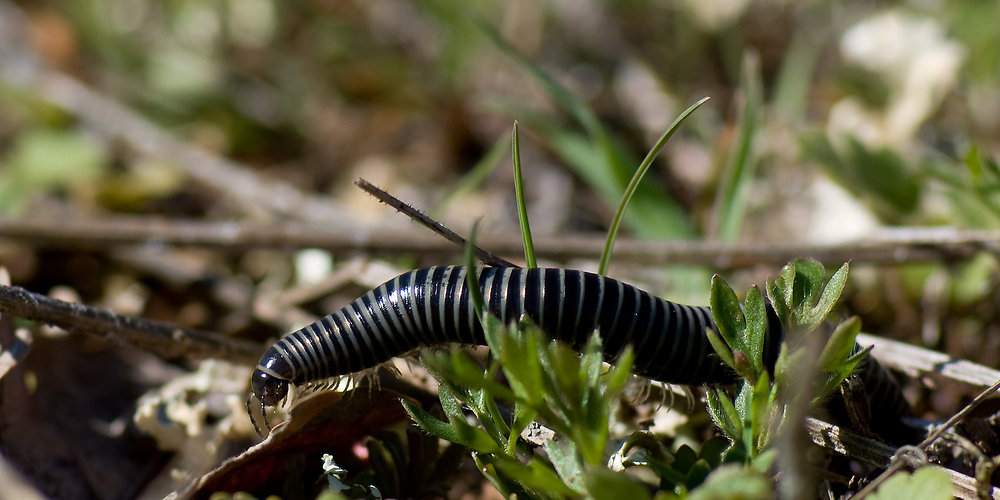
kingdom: Animalia
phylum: Arthropoda
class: Diplopoda
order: Julida
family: Julidae
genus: Ommatoiulus
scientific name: Ommatoiulus sabulosus
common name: Striped millipede
